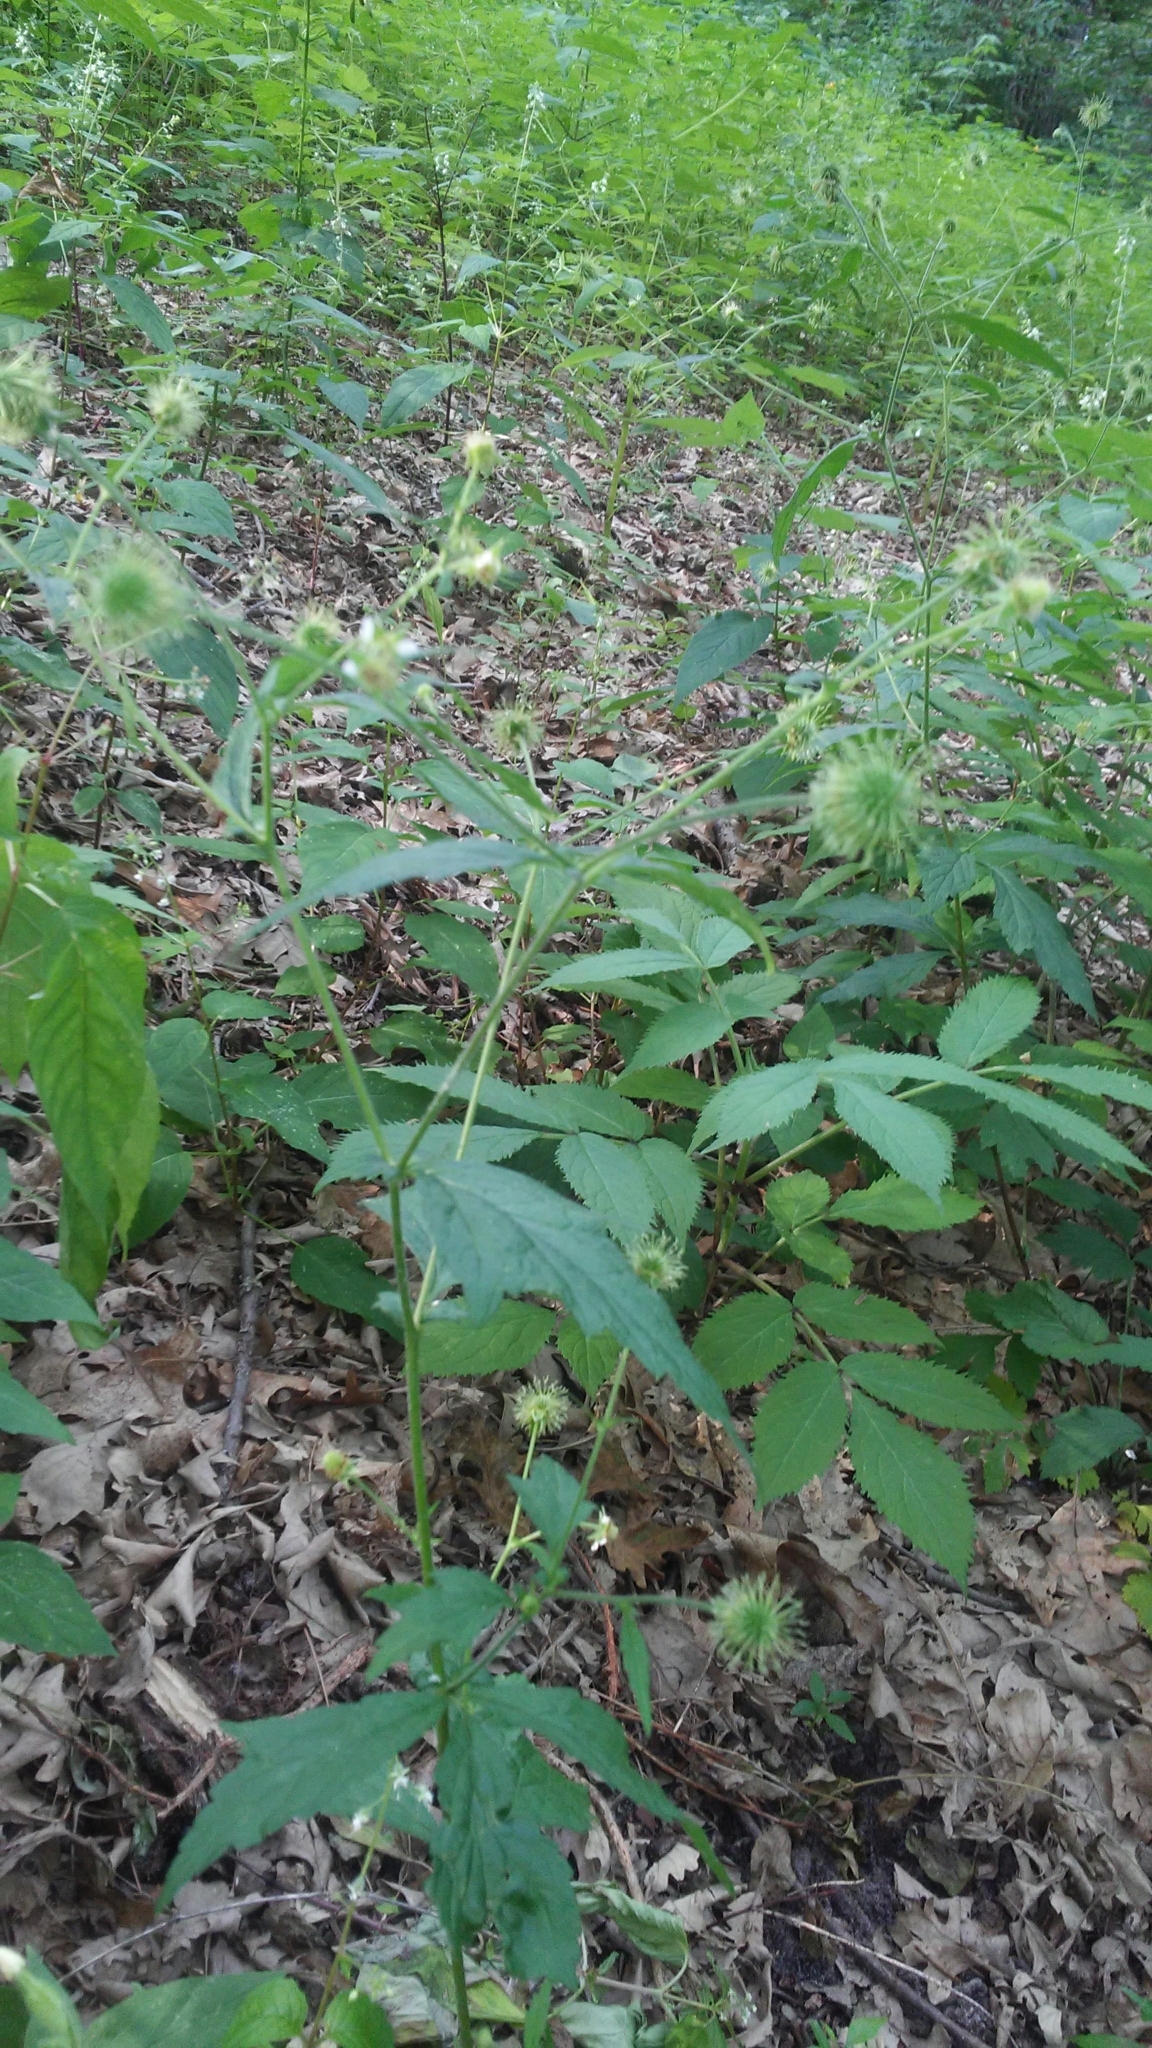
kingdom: Plantae
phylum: Tracheophyta
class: Magnoliopsida
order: Rosales
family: Rosaceae
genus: Geum
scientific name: Geum canadense
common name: White avens
